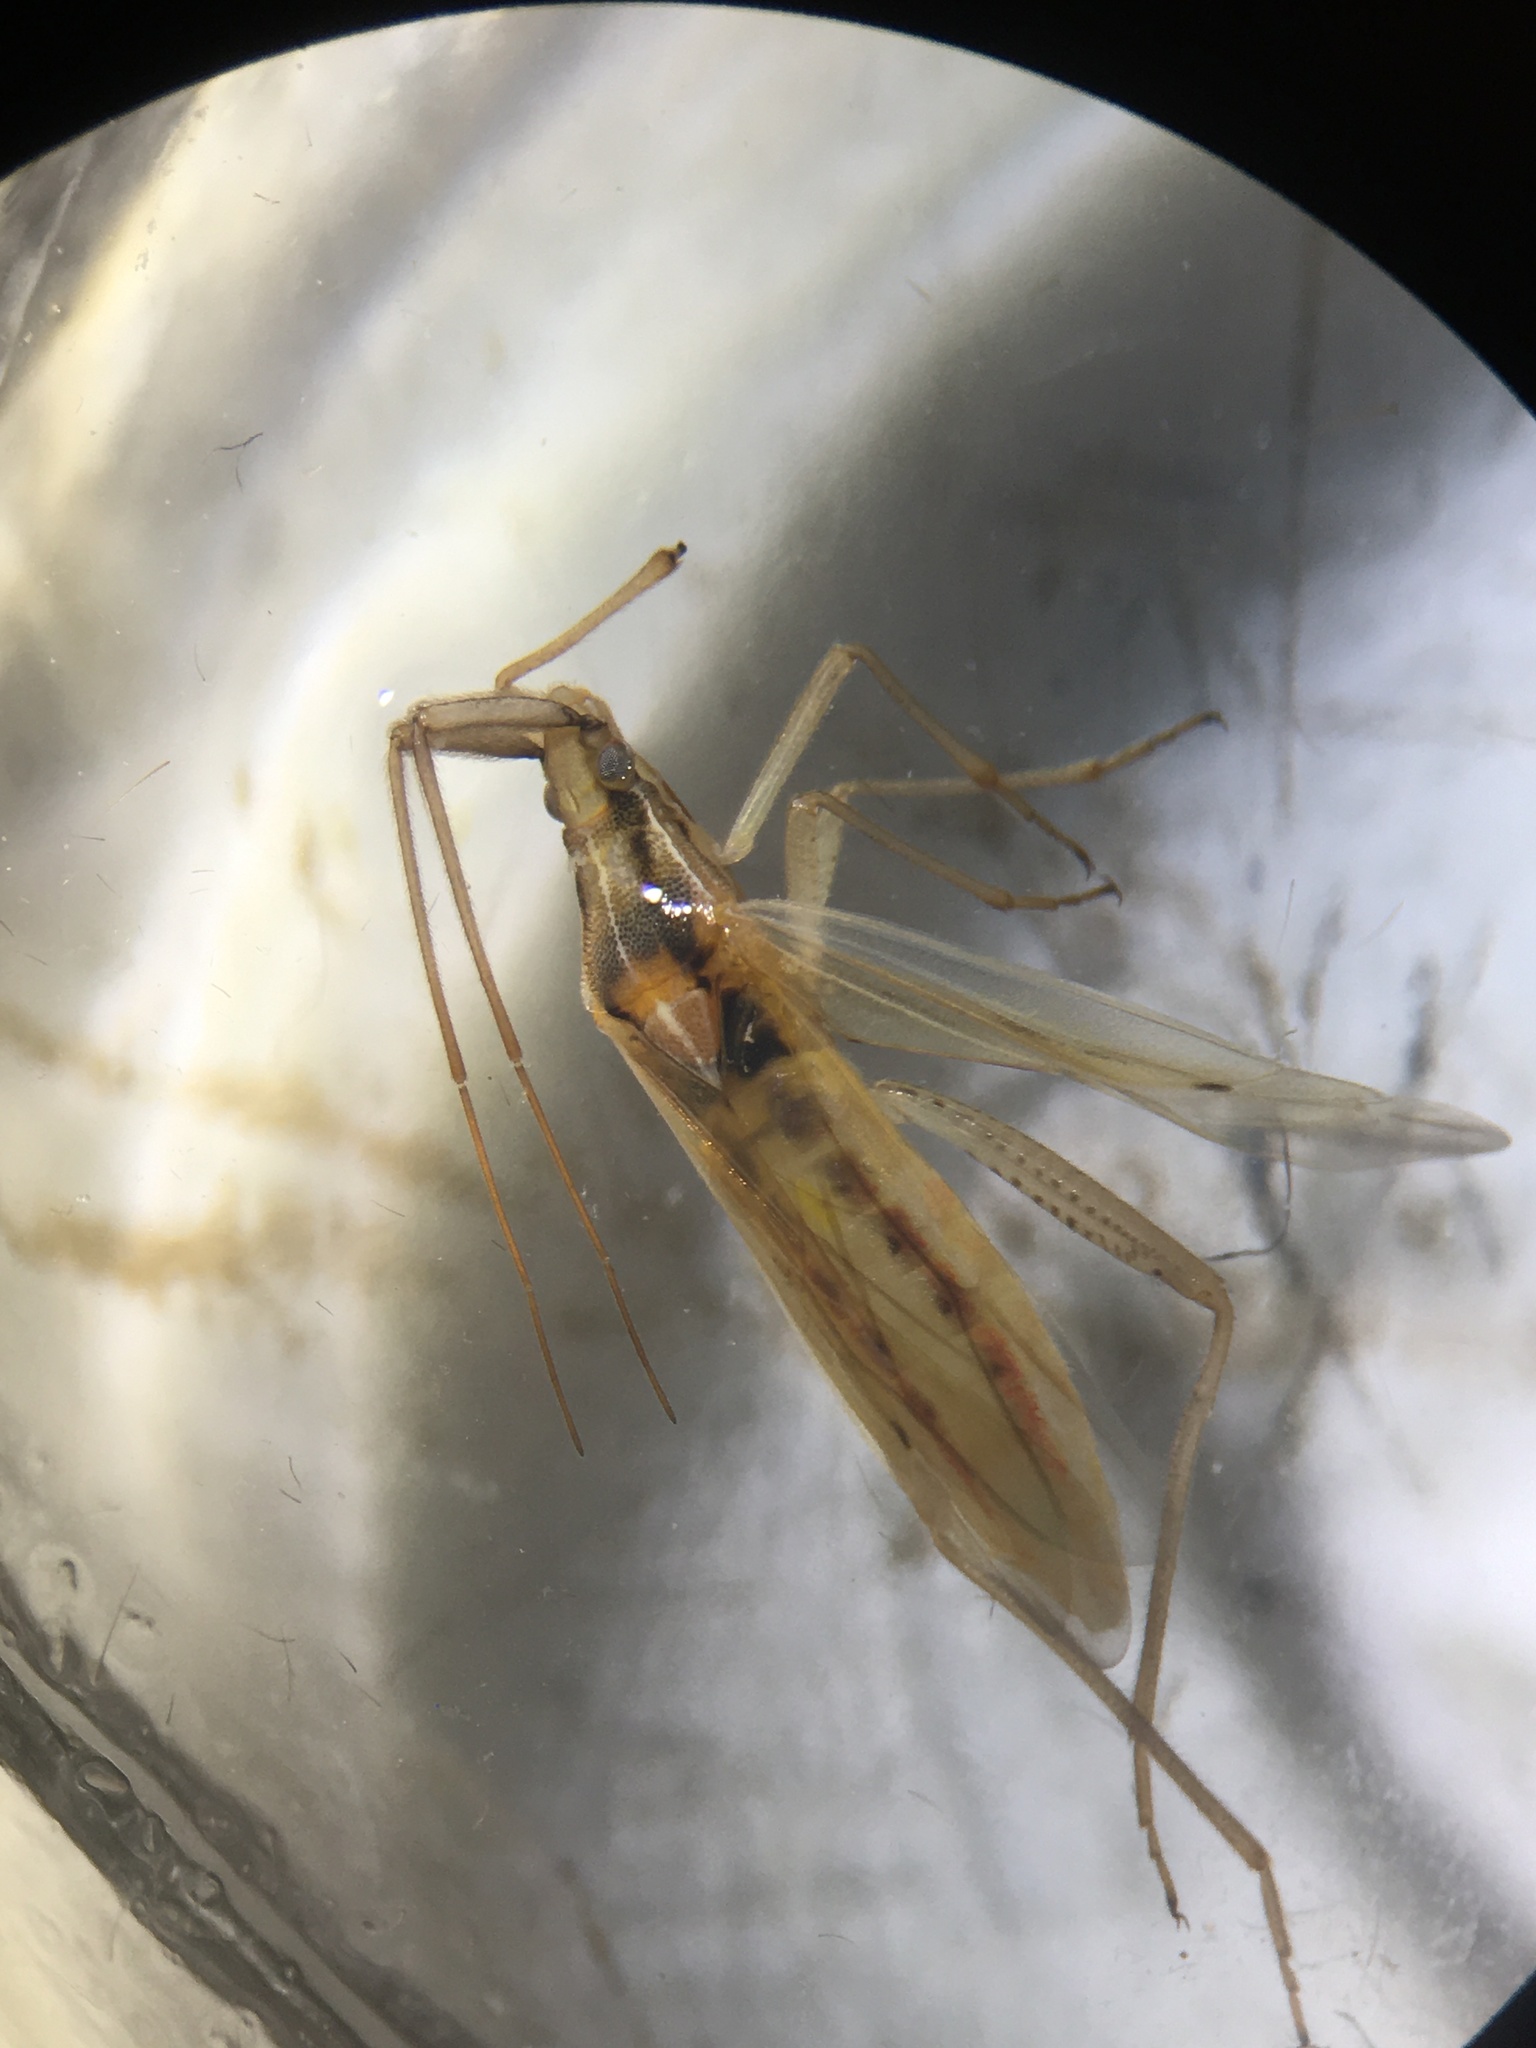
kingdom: Animalia
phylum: Arthropoda
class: Insecta
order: Hemiptera
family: Miridae
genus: Stenodema
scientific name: Stenodema laevigata
